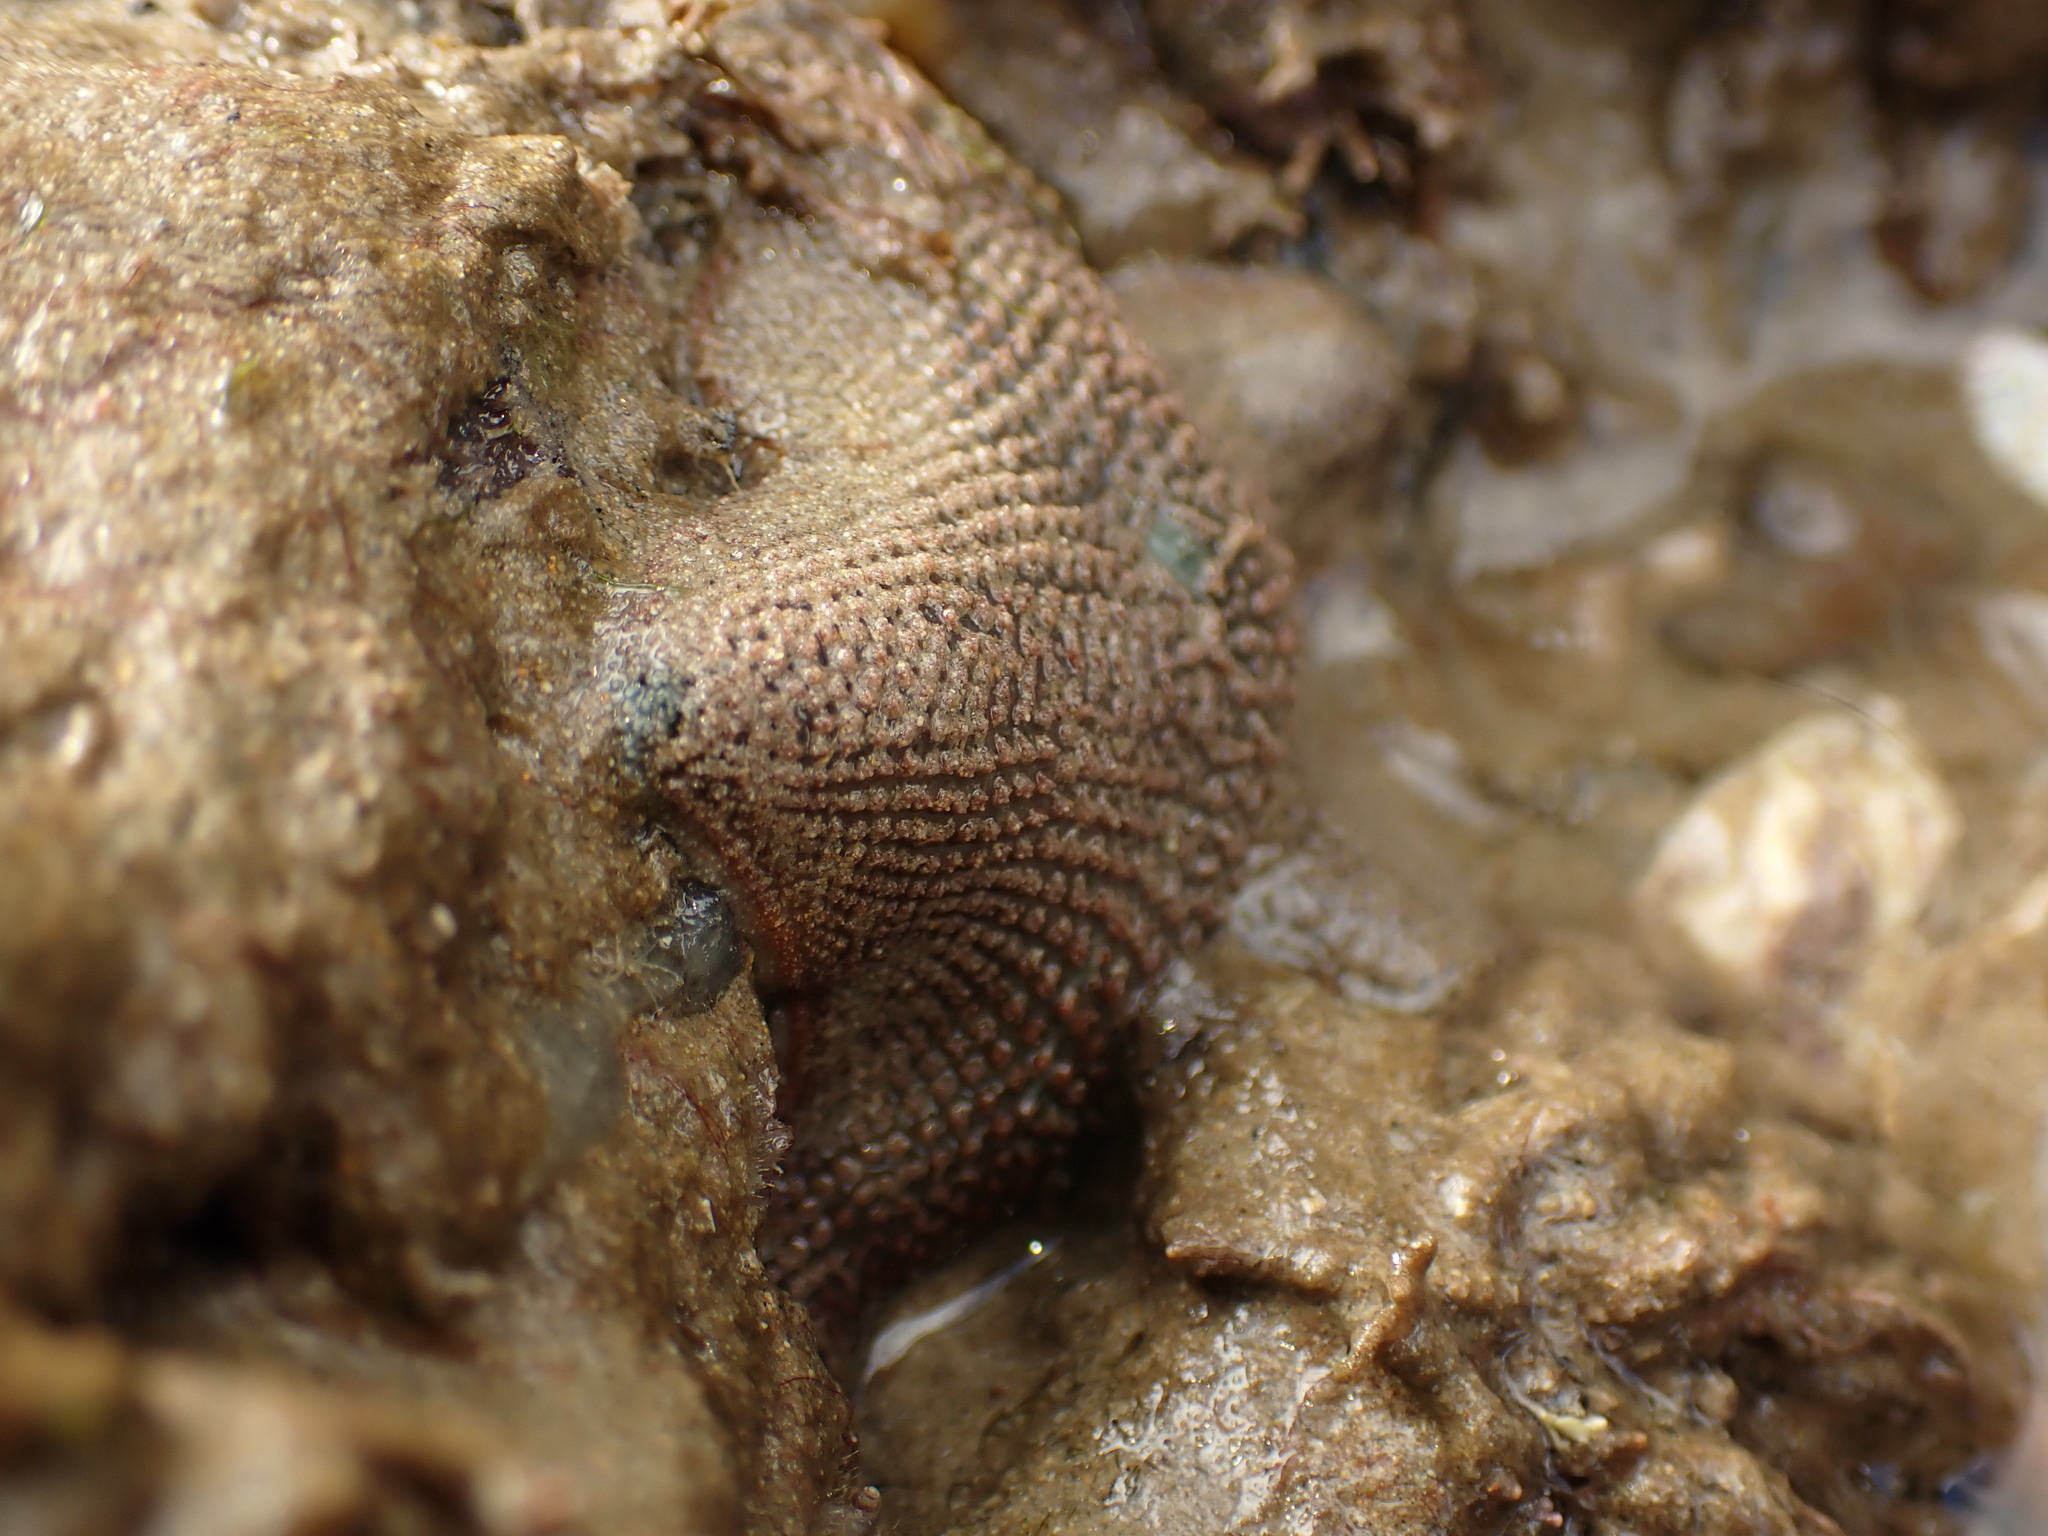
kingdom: Animalia
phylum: Echinodermata
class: Asteroidea
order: Valvatida
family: Asterinidae
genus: Patiriella
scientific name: Patiriella regularis
